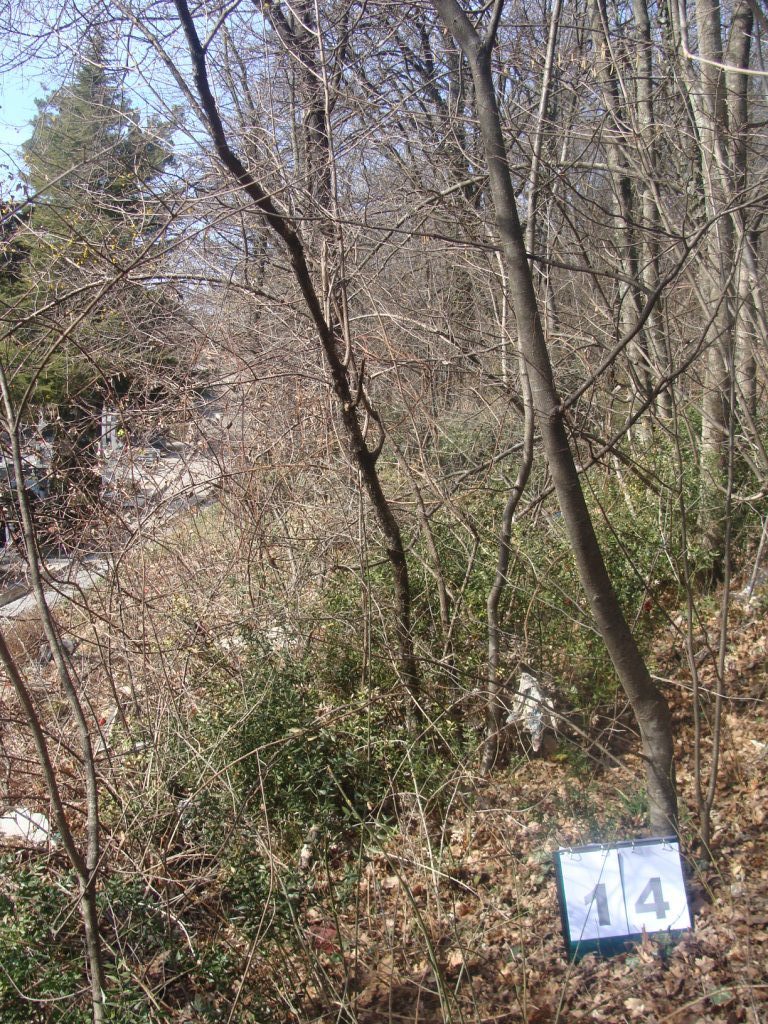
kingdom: Plantae
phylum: Tracheophyta
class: Magnoliopsida
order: Cornales
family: Cornaceae
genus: Cornus
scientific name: Cornus mas
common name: Cornelian-cherry
